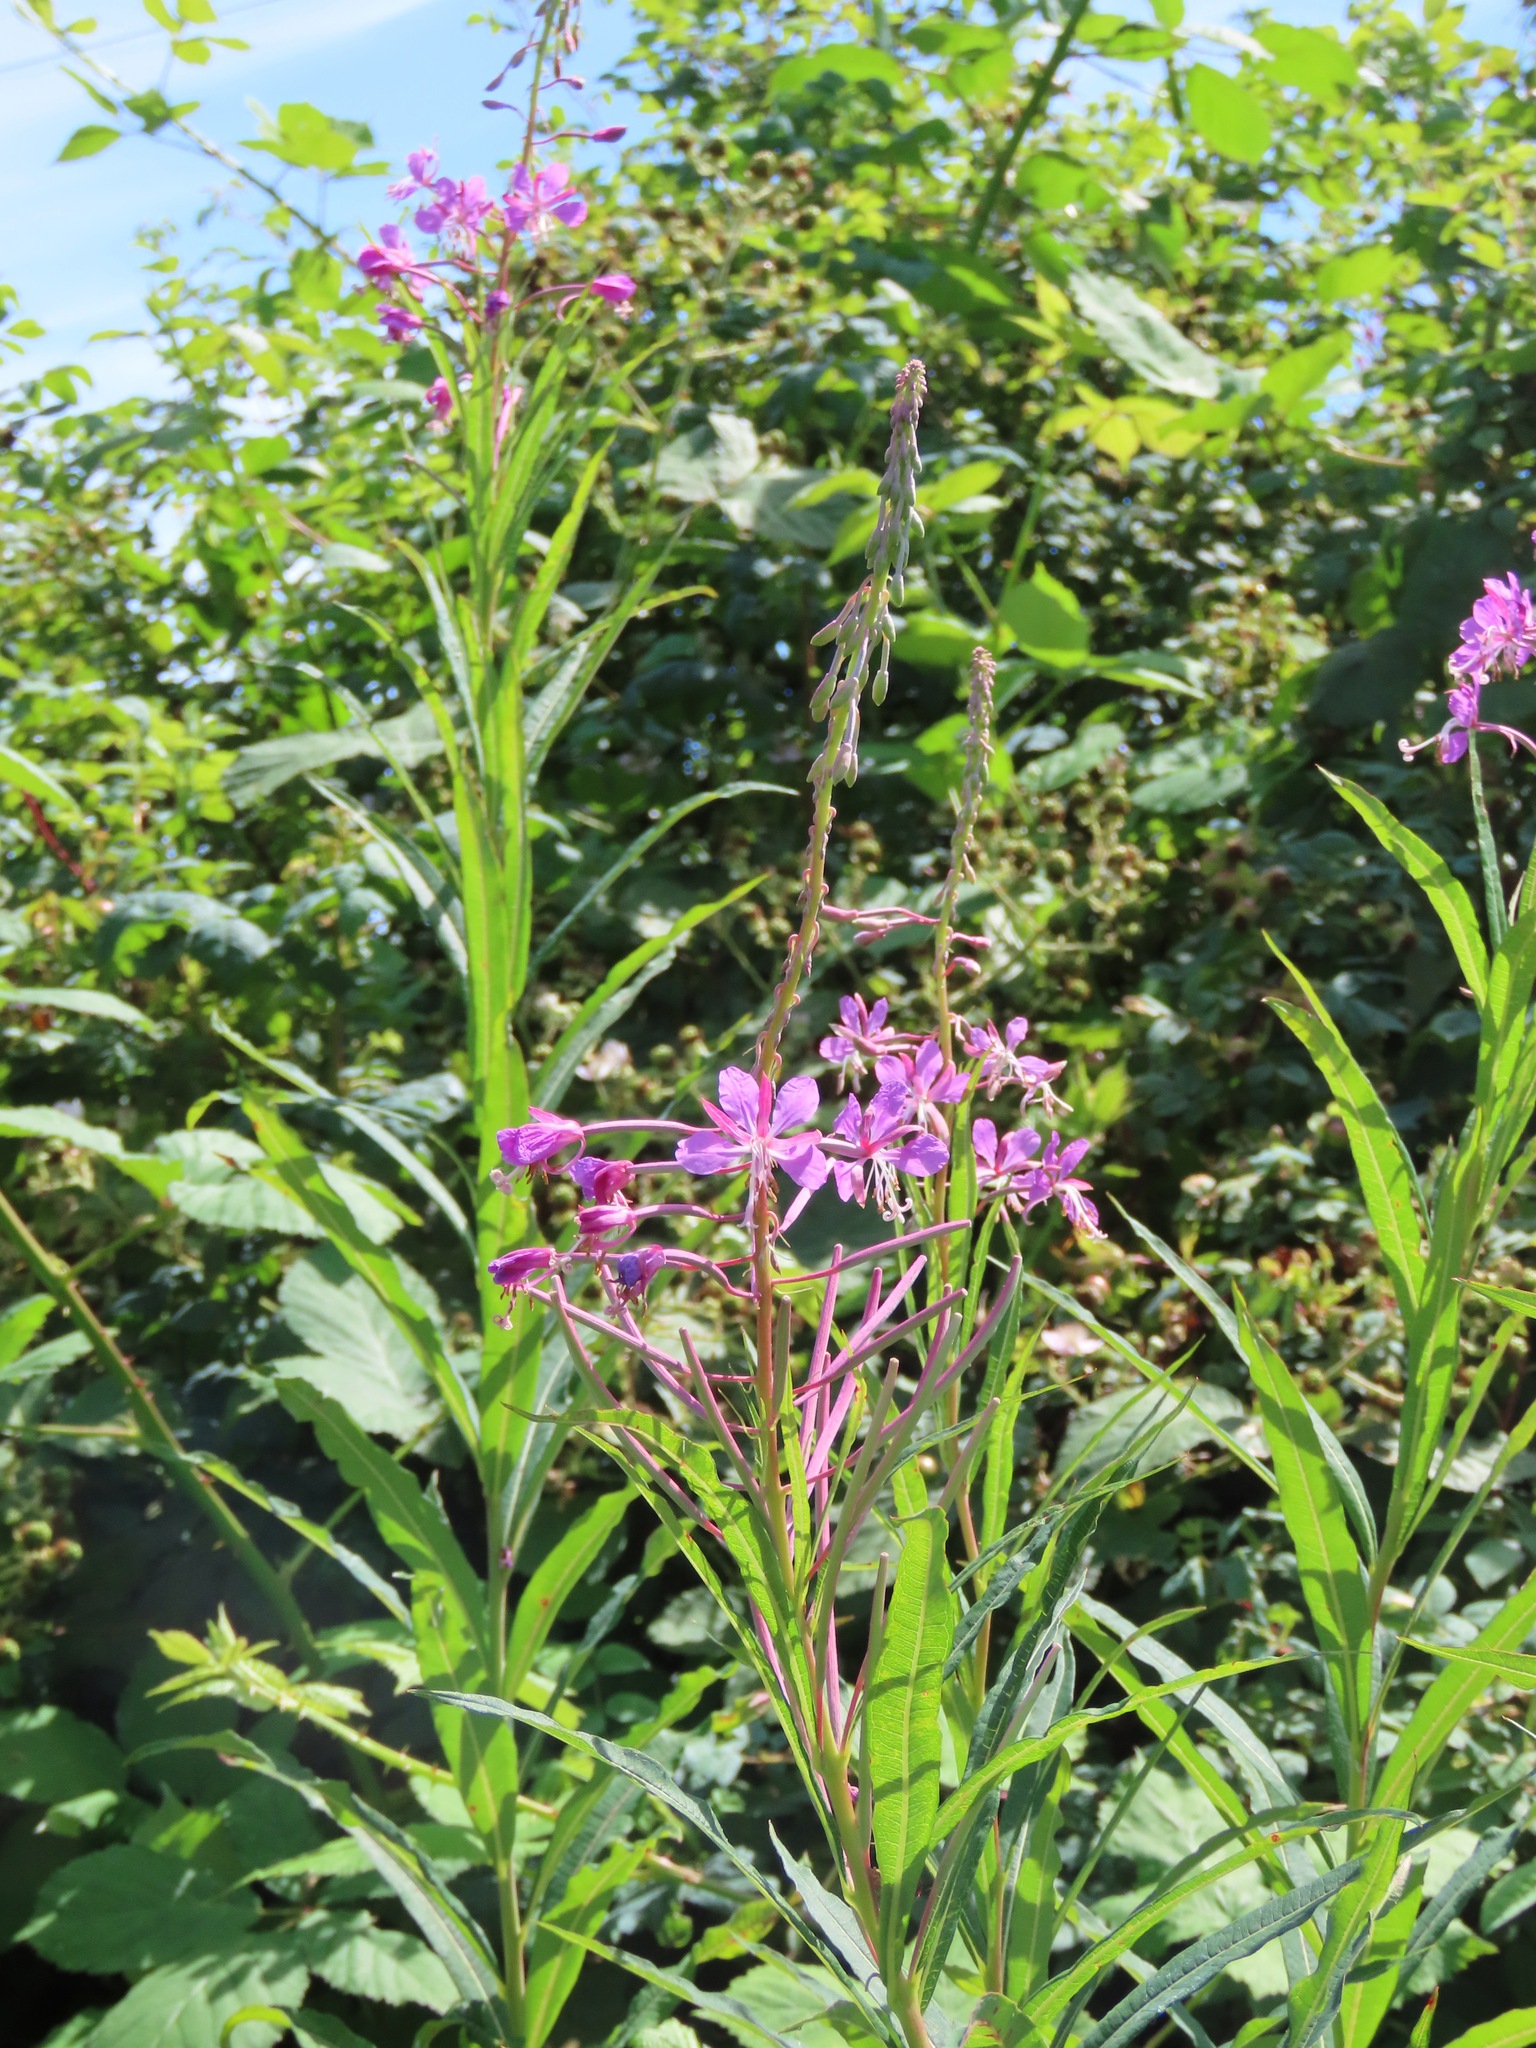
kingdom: Plantae
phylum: Tracheophyta
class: Magnoliopsida
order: Myrtales
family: Onagraceae
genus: Chamaenerion
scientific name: Chamaenerion angustifolium
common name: Fireweed
